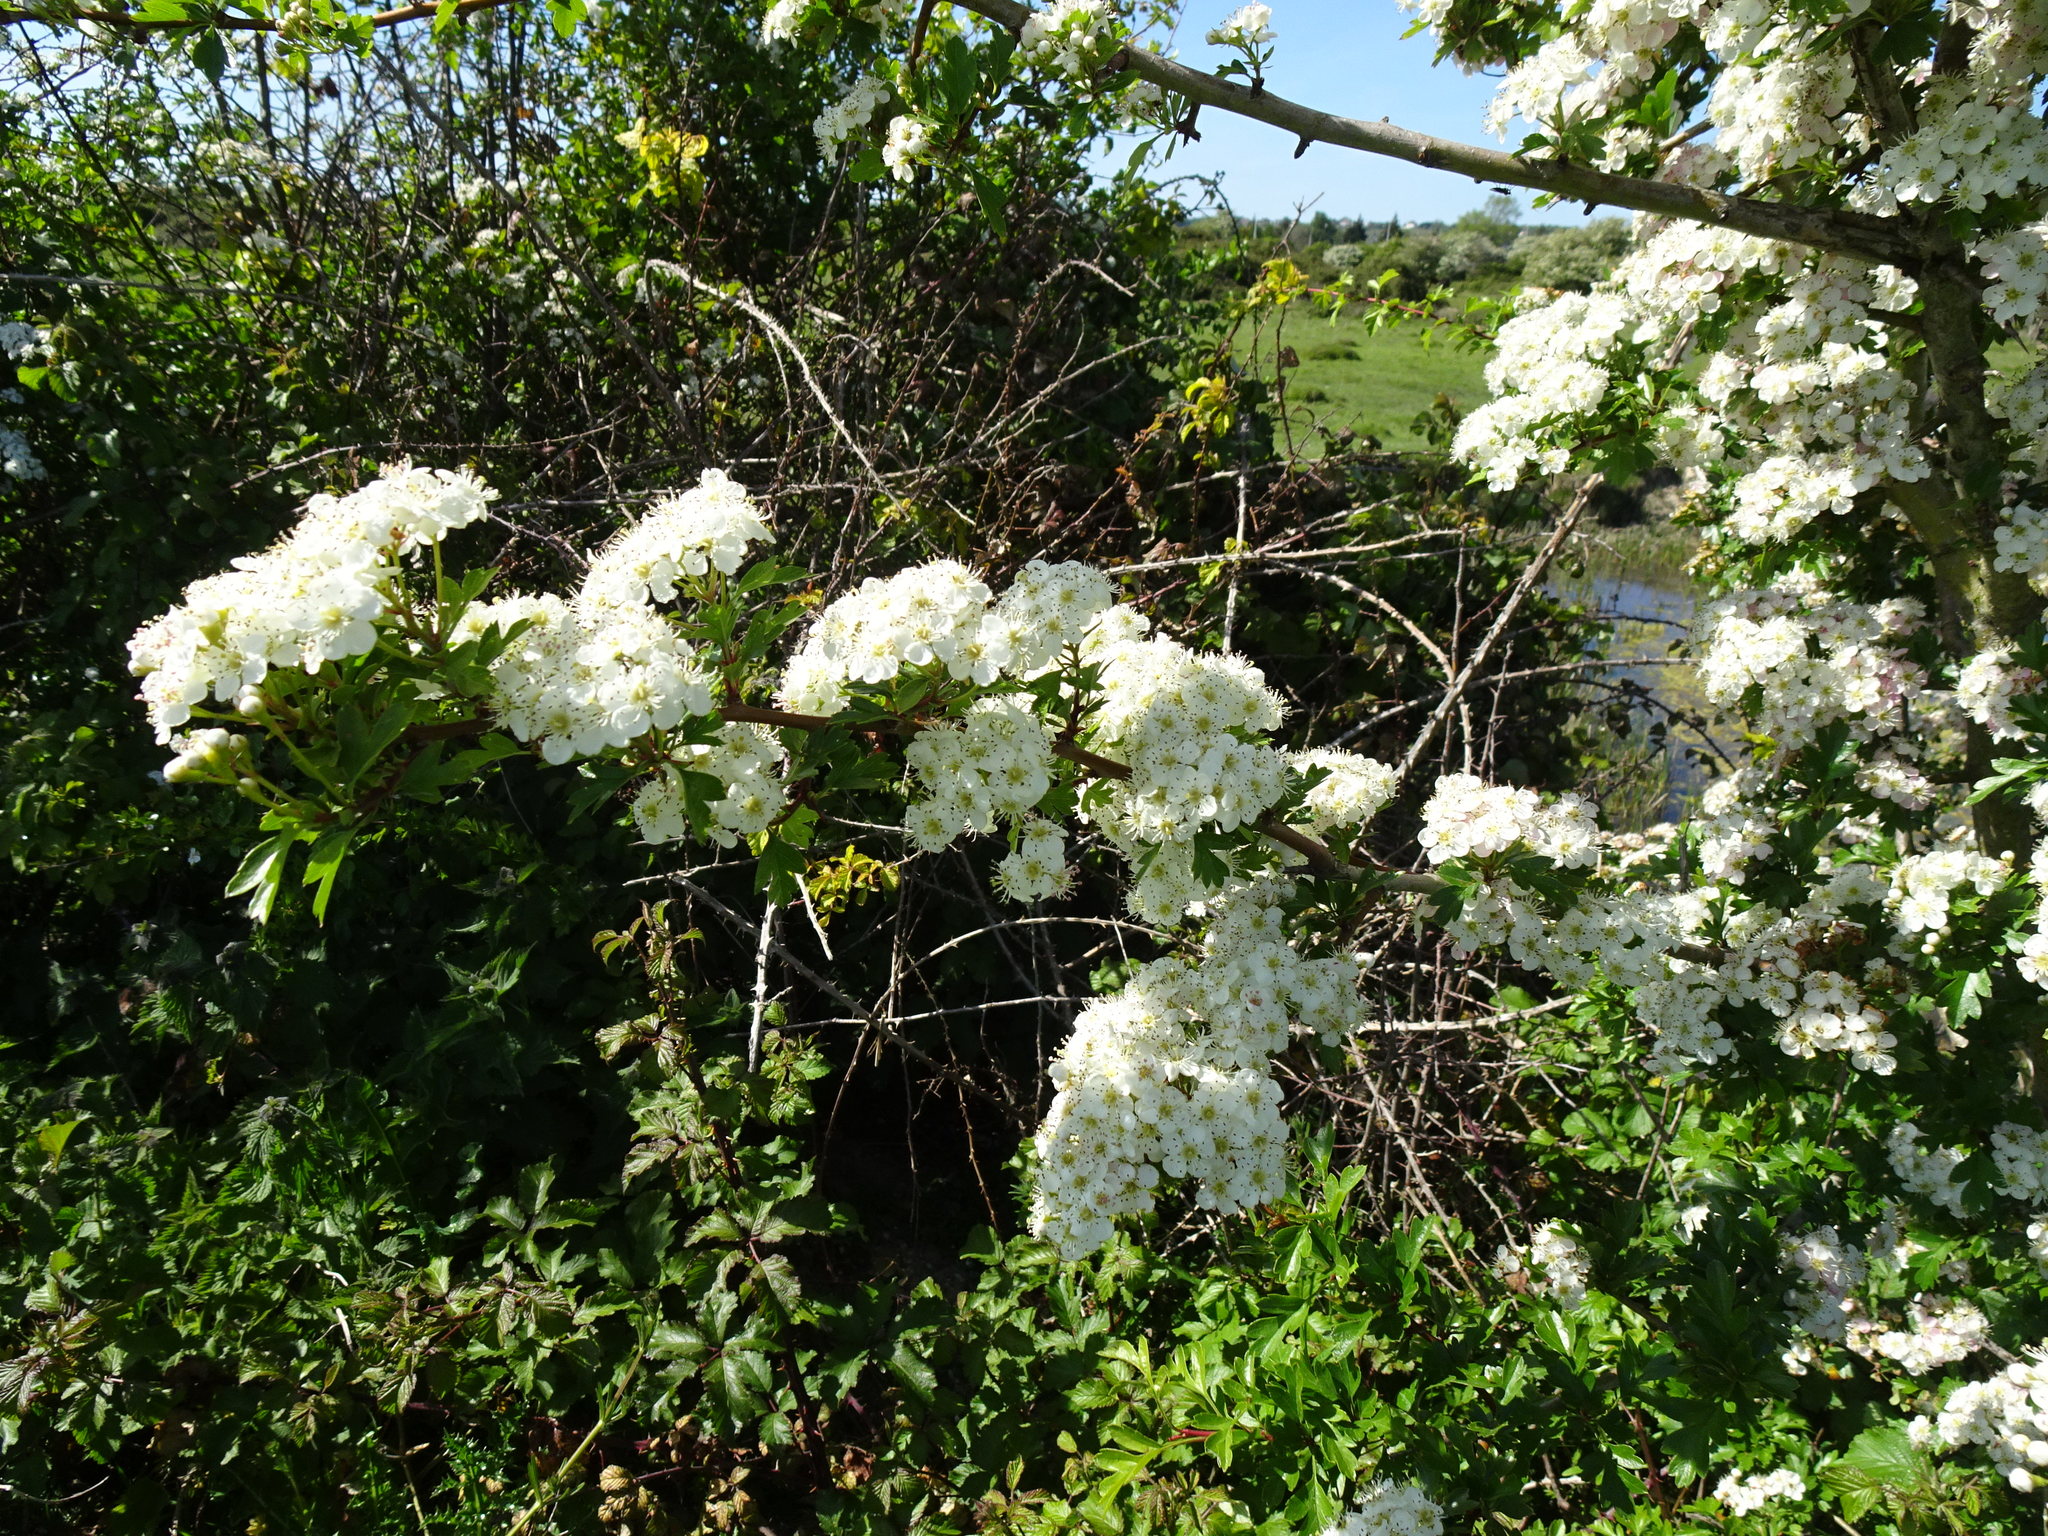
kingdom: Plantae
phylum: Tracheophyta
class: Magnoliopsida
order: Rosales
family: Rosaceae
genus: Crataegus
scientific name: Crataegus monogyna
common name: Hawthorn
